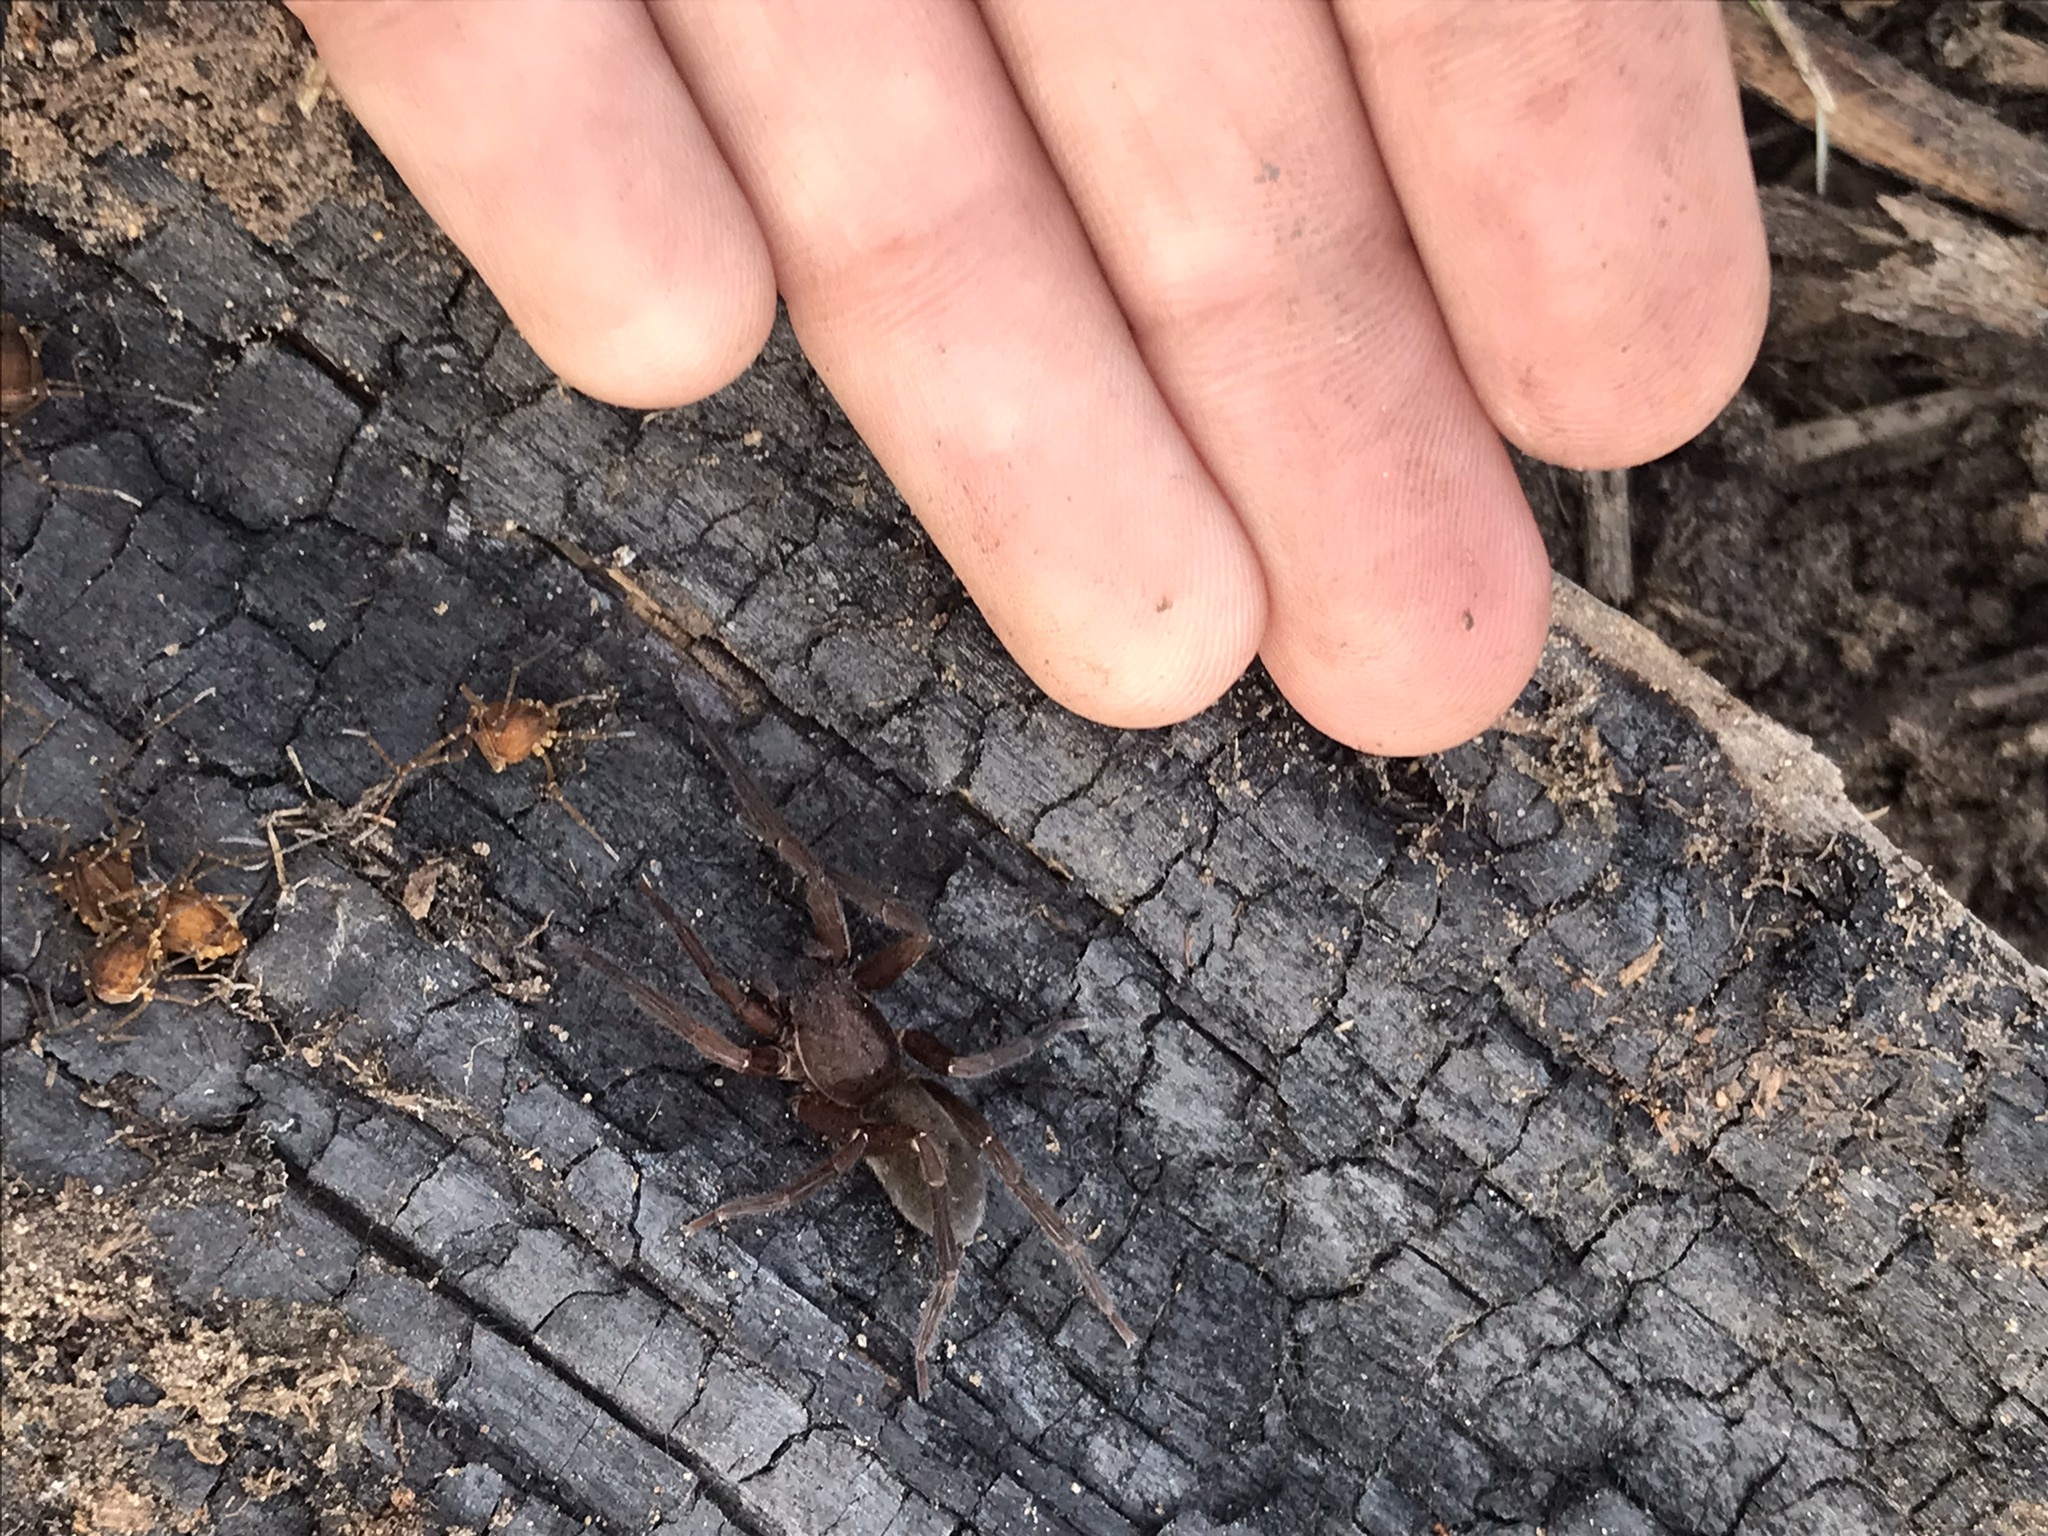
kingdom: Animalia
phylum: Arthropoda
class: Arachnida
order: Araneae
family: Ctenidae
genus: Asthenoctenus
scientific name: Asthenoctenus borellii
